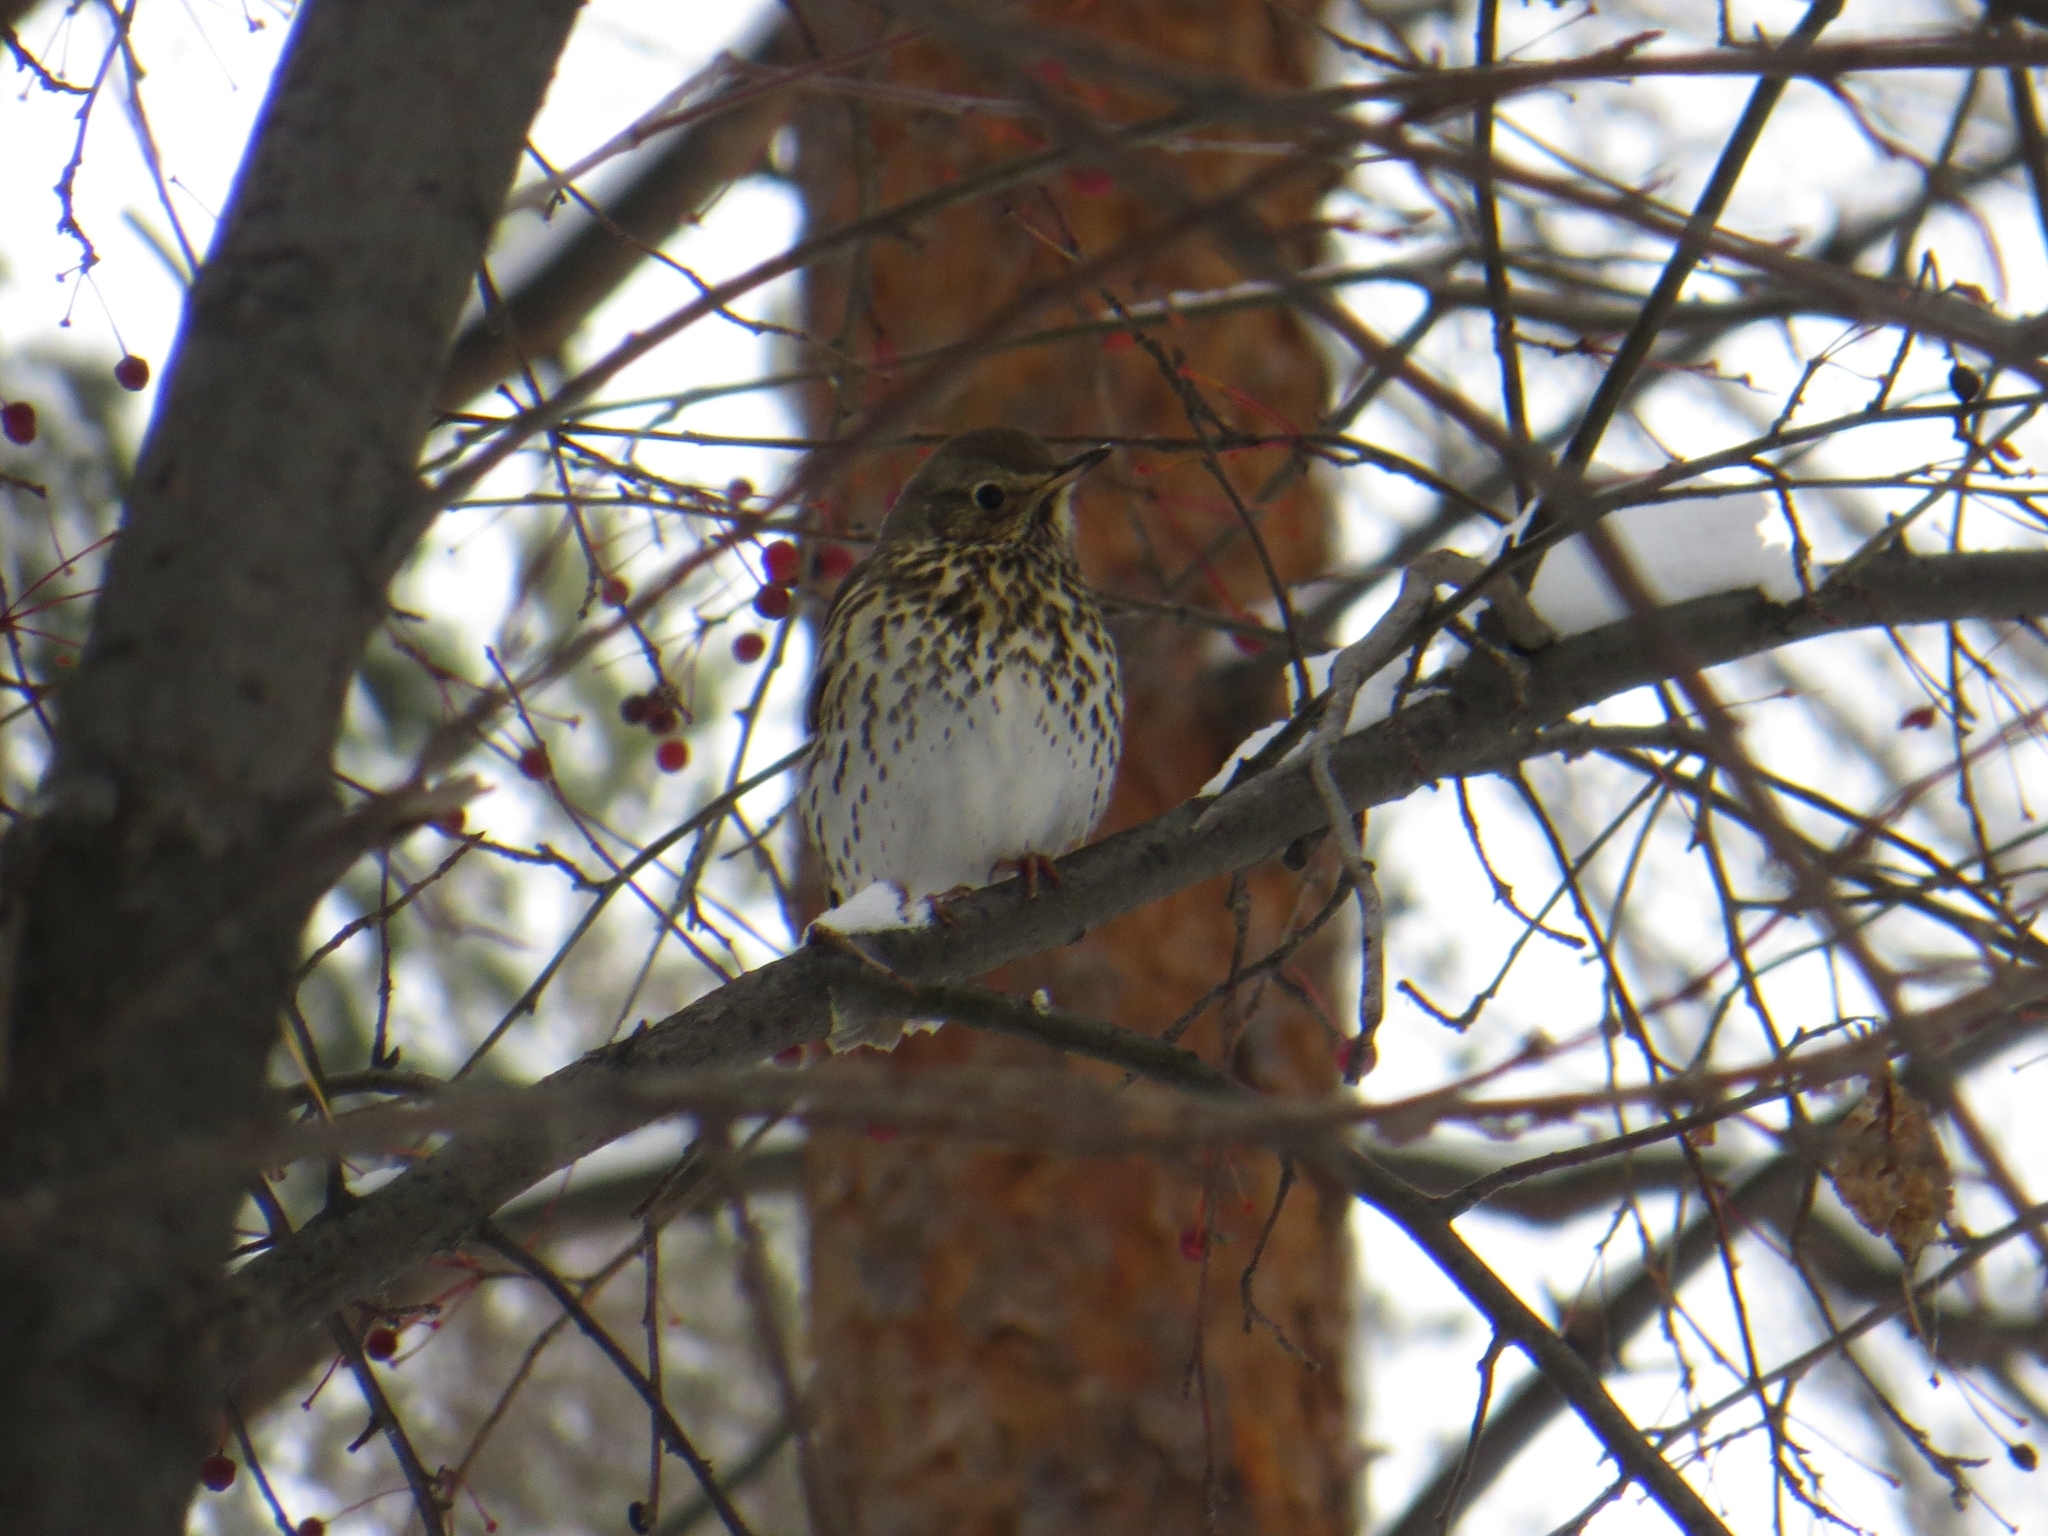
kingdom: Animalia
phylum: Chordata
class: Aves
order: Passeriformes
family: Turdidae
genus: Turdus
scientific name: Turdus philomelos
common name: Song thrush
